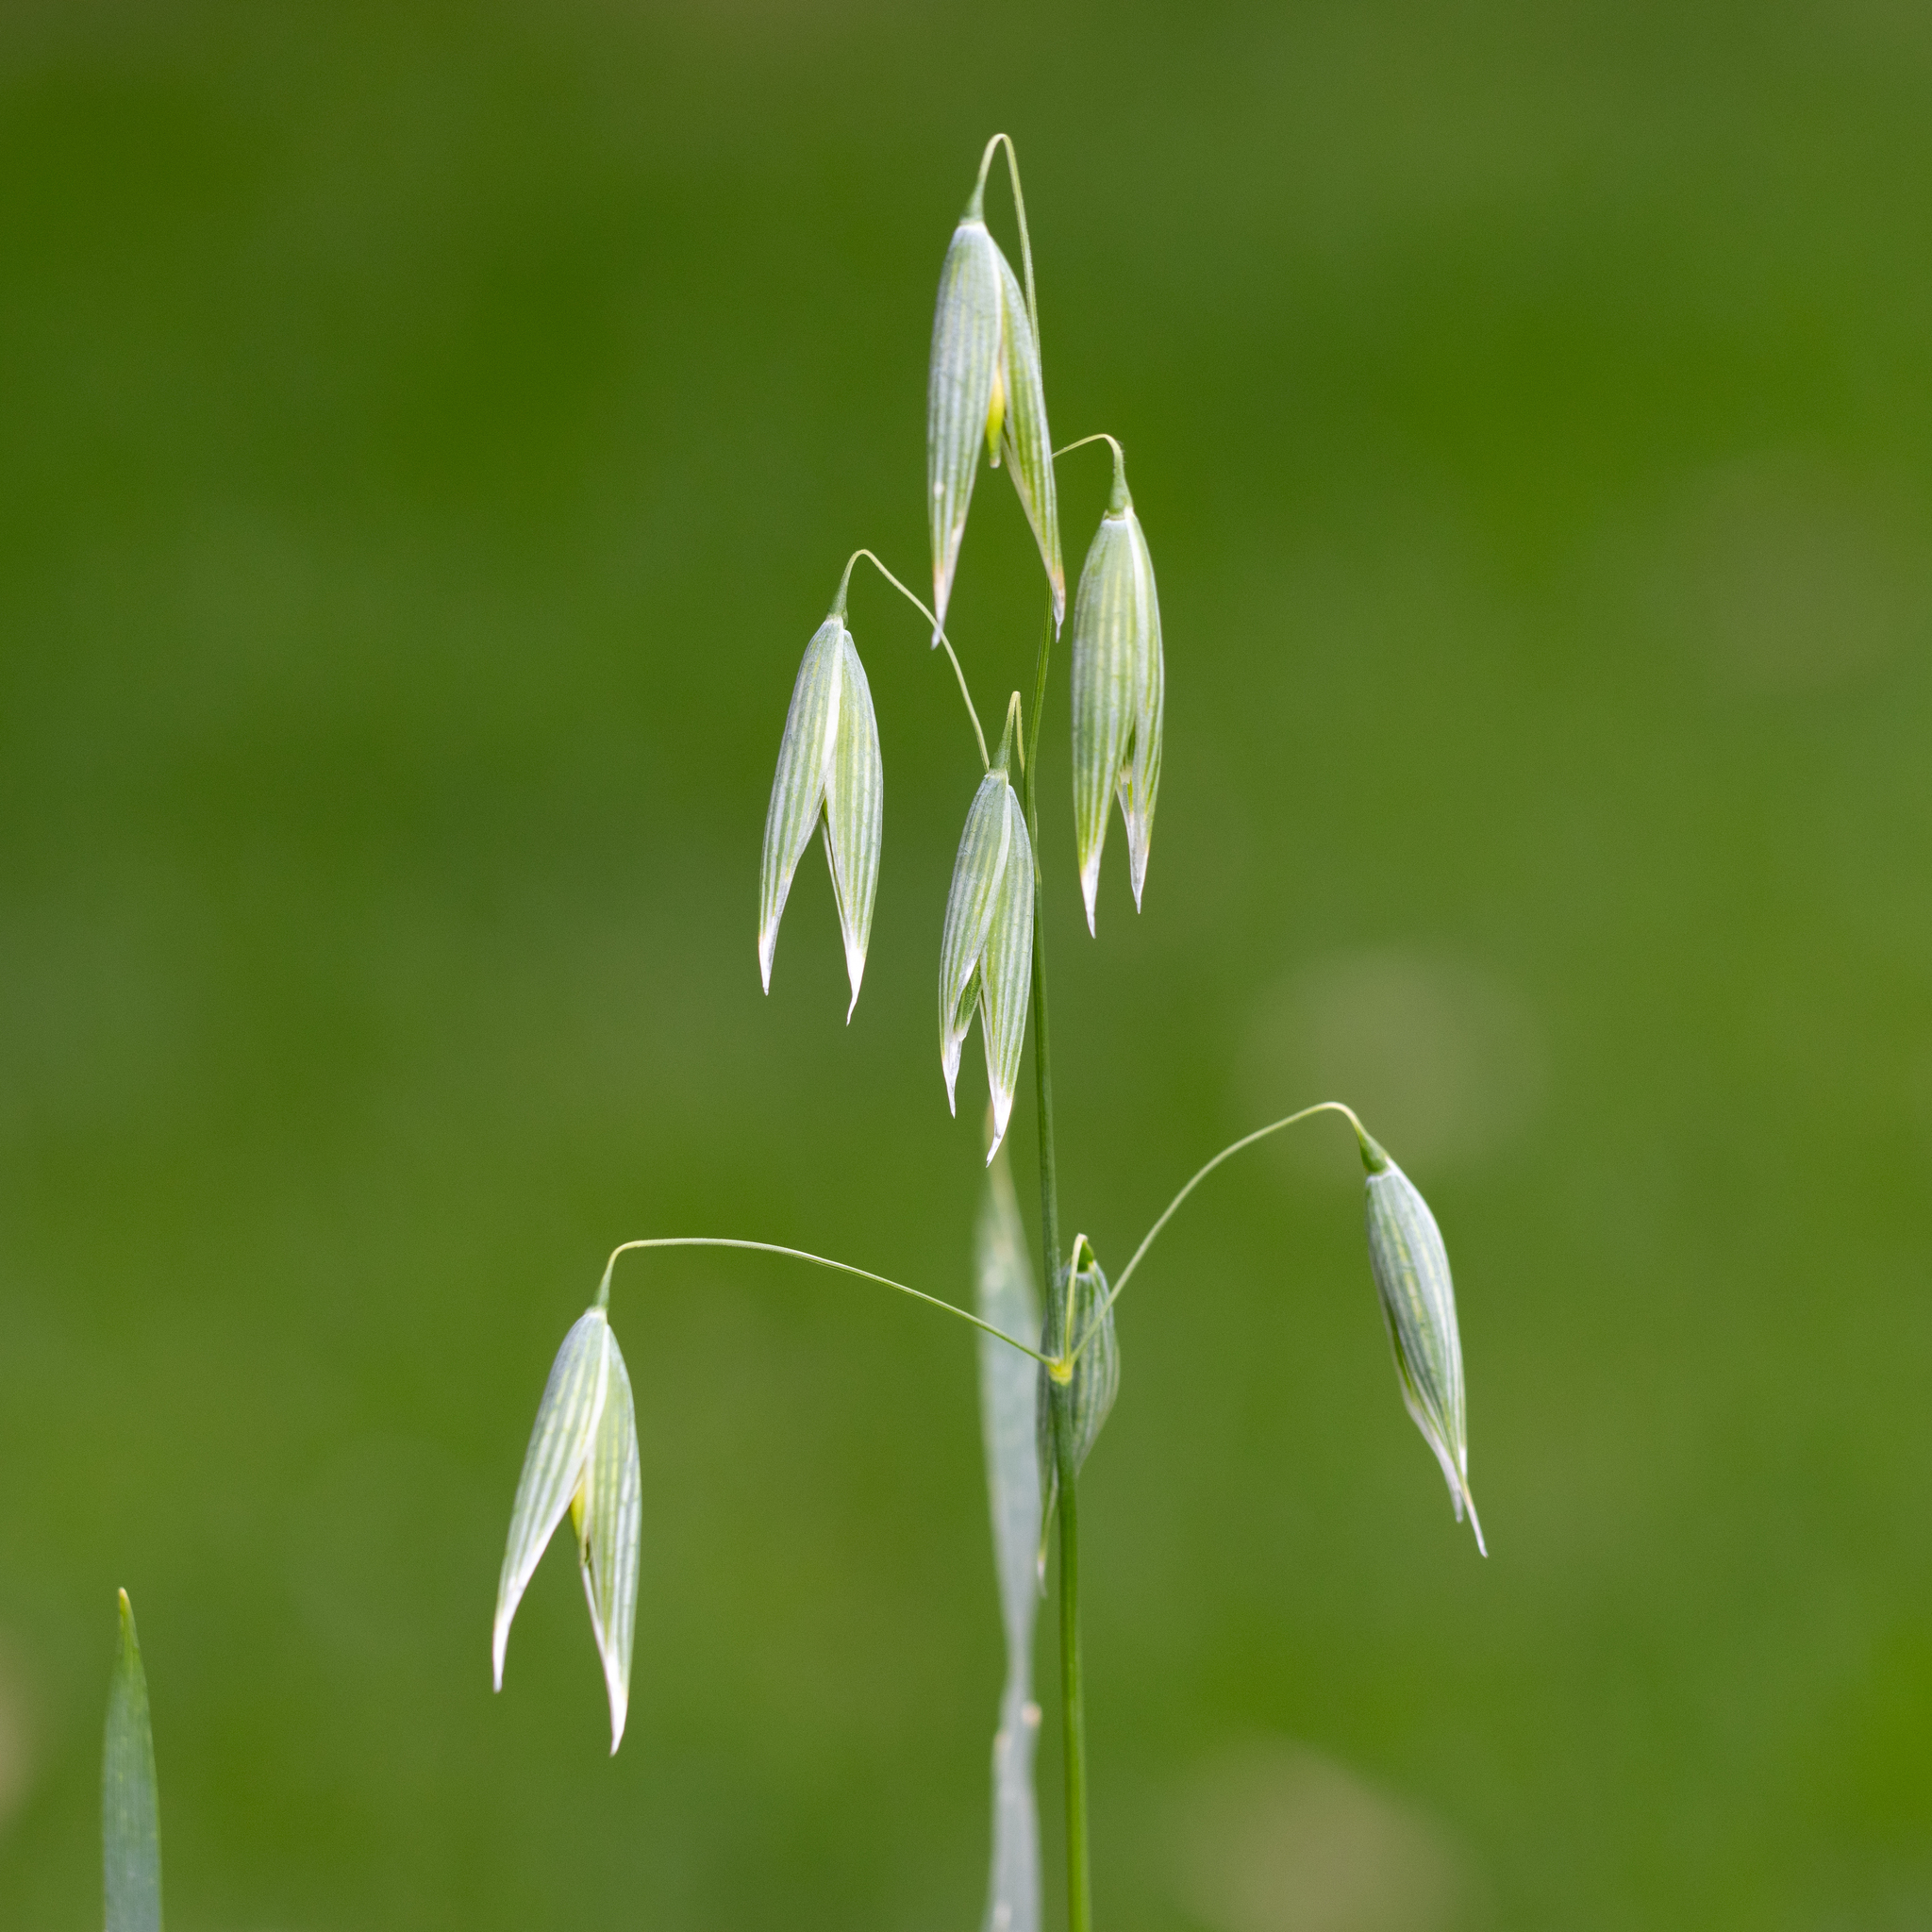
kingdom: Plantae
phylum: Tracheophyta
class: Liliopsida
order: Poales
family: Poaceae
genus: Avena
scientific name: Avena sativa
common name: Oat
